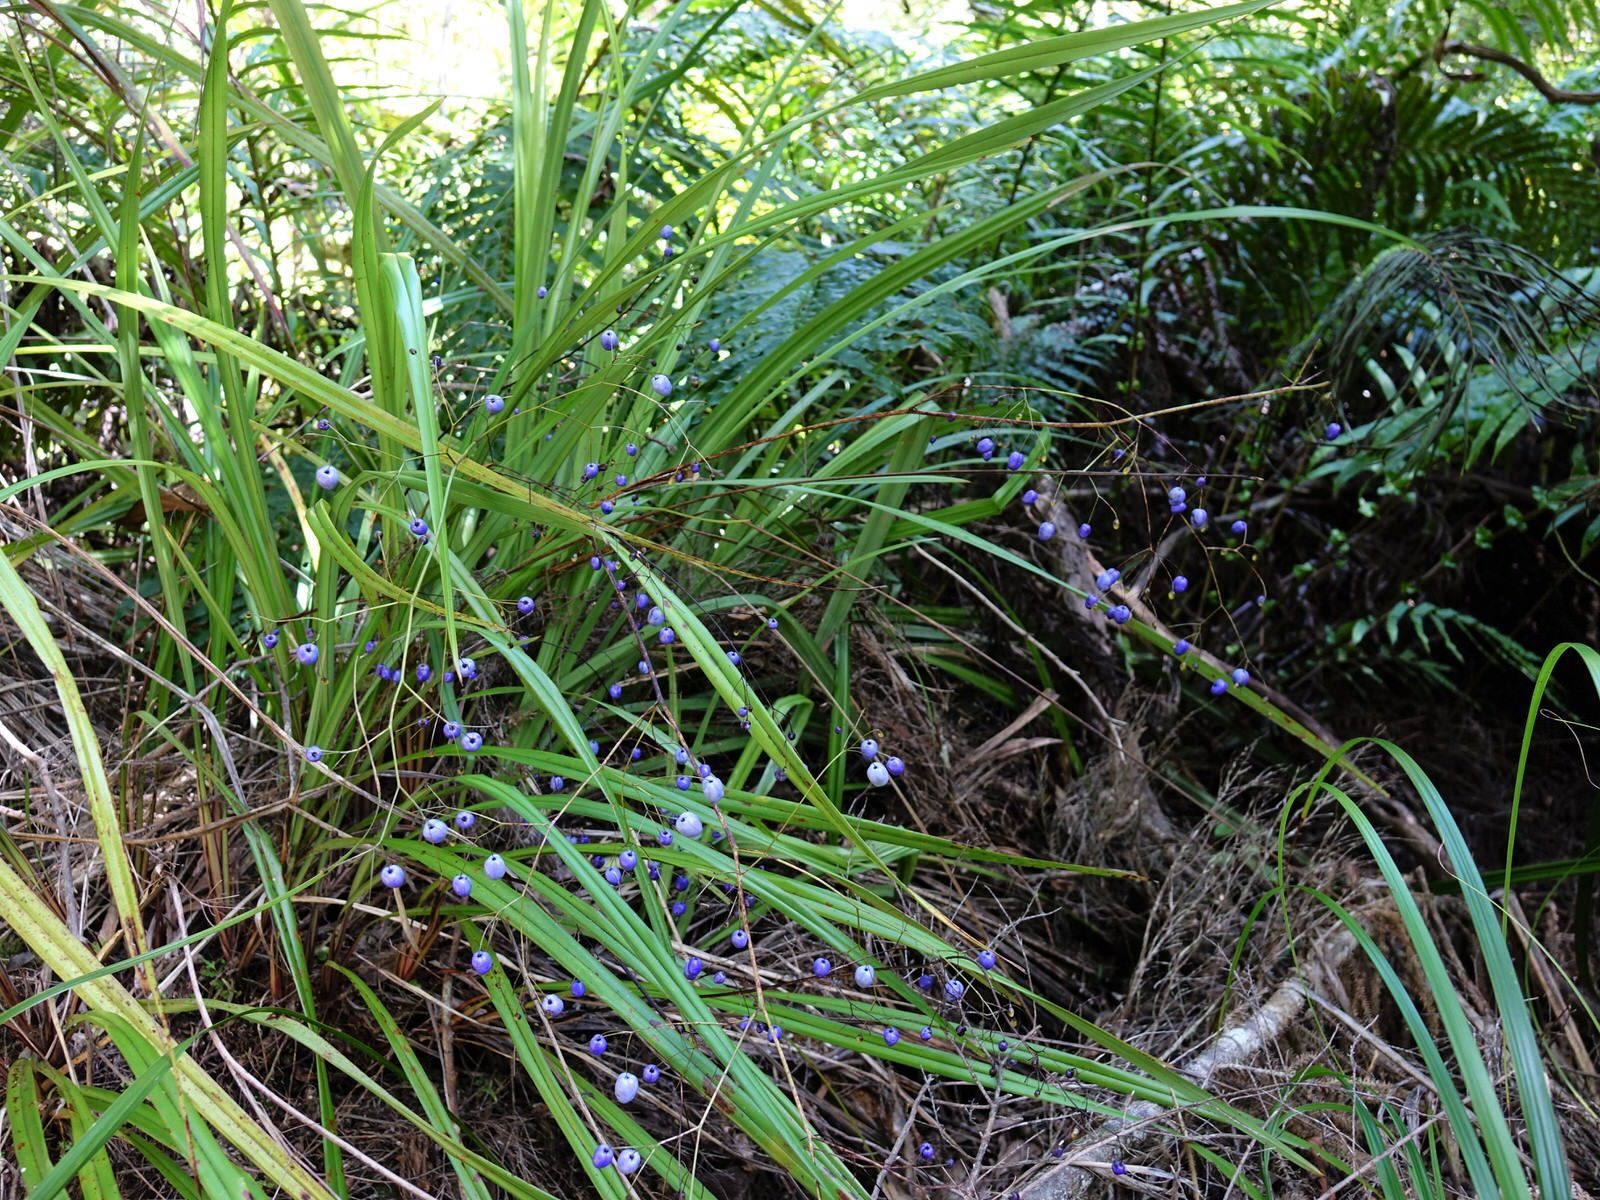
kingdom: Plantae
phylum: Tracheophyta
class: Liliopsida
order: Asparagales
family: Asphodelaceae
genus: Dianella
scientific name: Dianella nigra
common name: New zealand-blueberry
